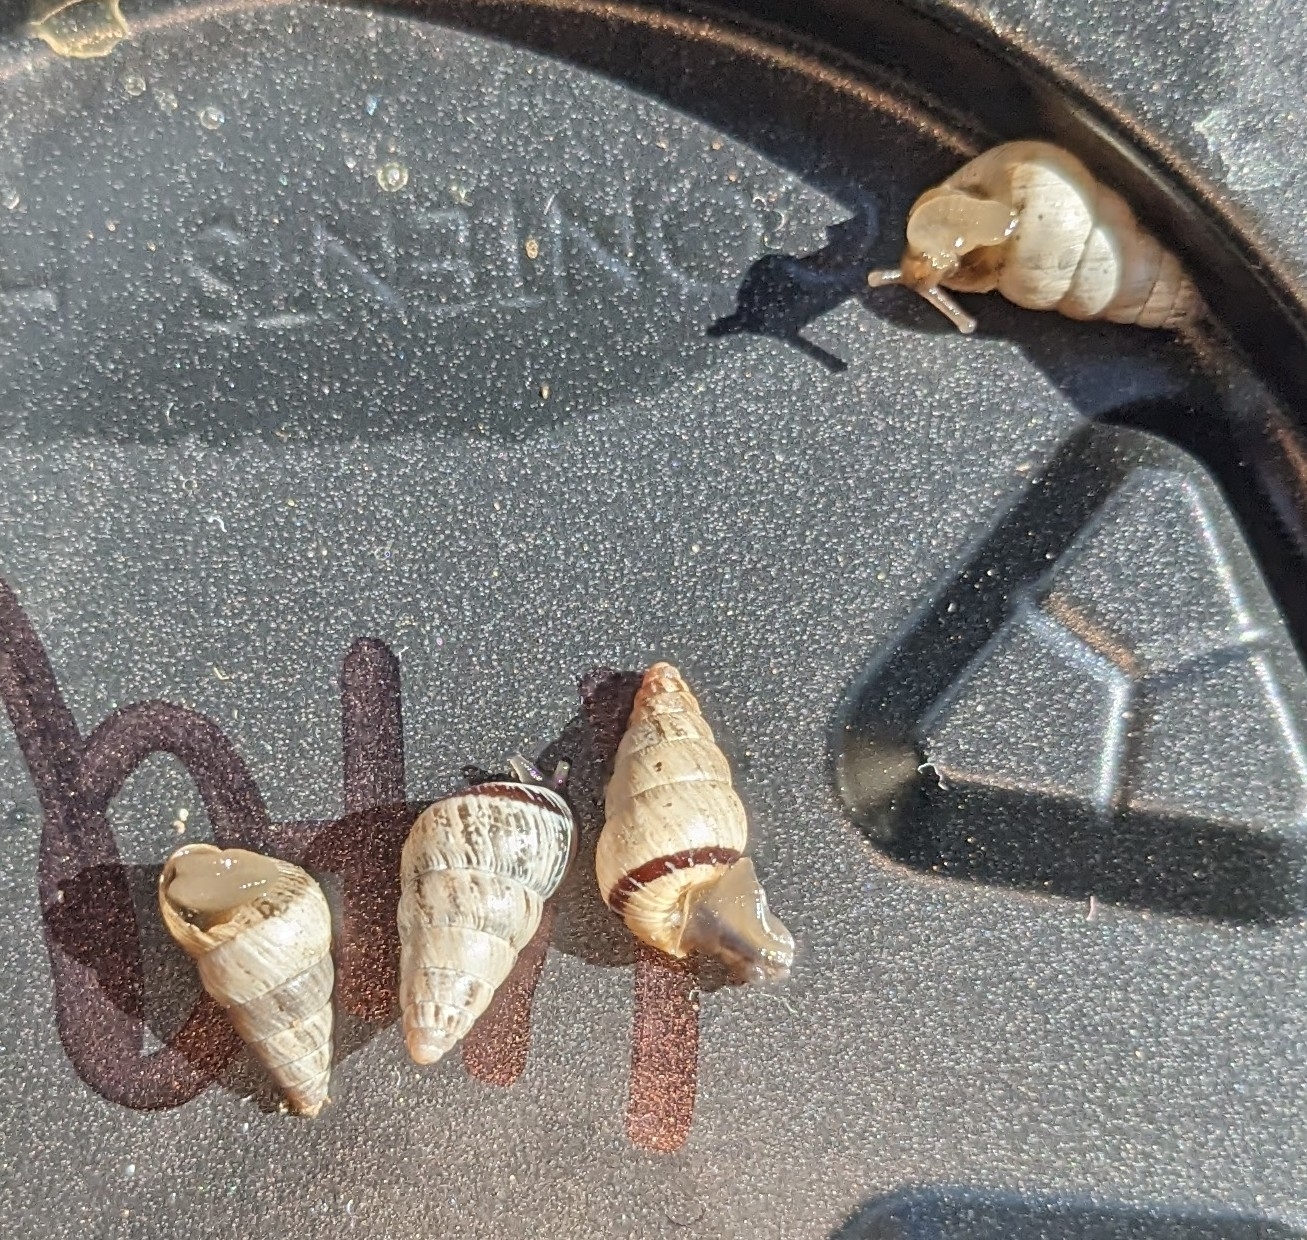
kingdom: Animalia
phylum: Mollusca
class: Gastropoda
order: Stylommatophora
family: Geomitridae
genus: Cochlicella
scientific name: Cochlicella barbara
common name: Potbellied helicellid
